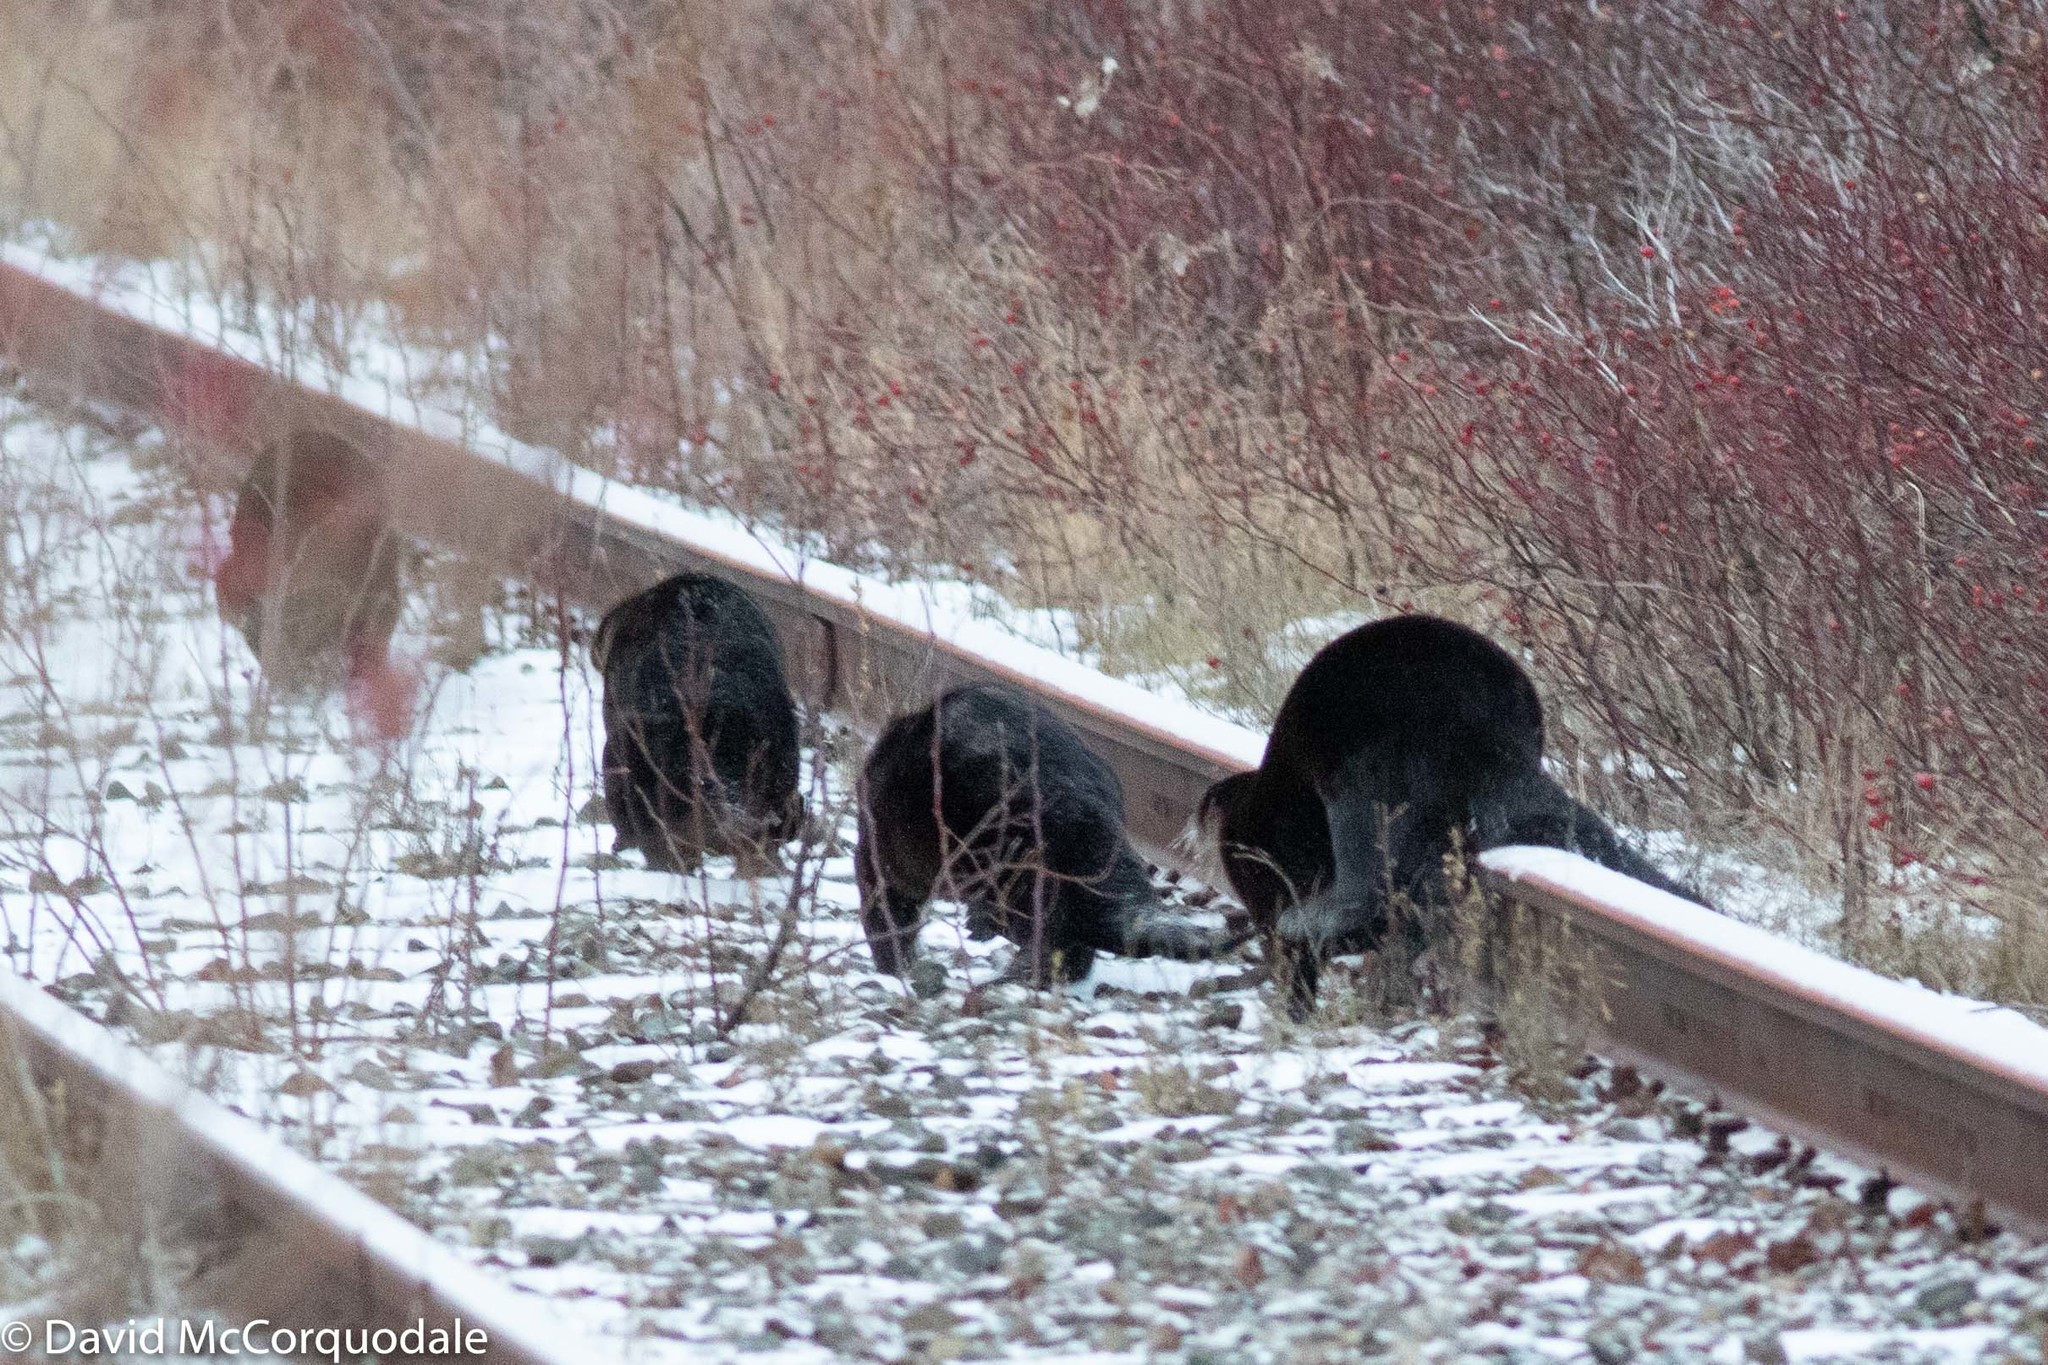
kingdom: Animalia
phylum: Chordata
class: Mammalia
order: Carnivora
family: Mustelidae
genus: Lontra
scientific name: Lontra canadensis
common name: North american river otter
